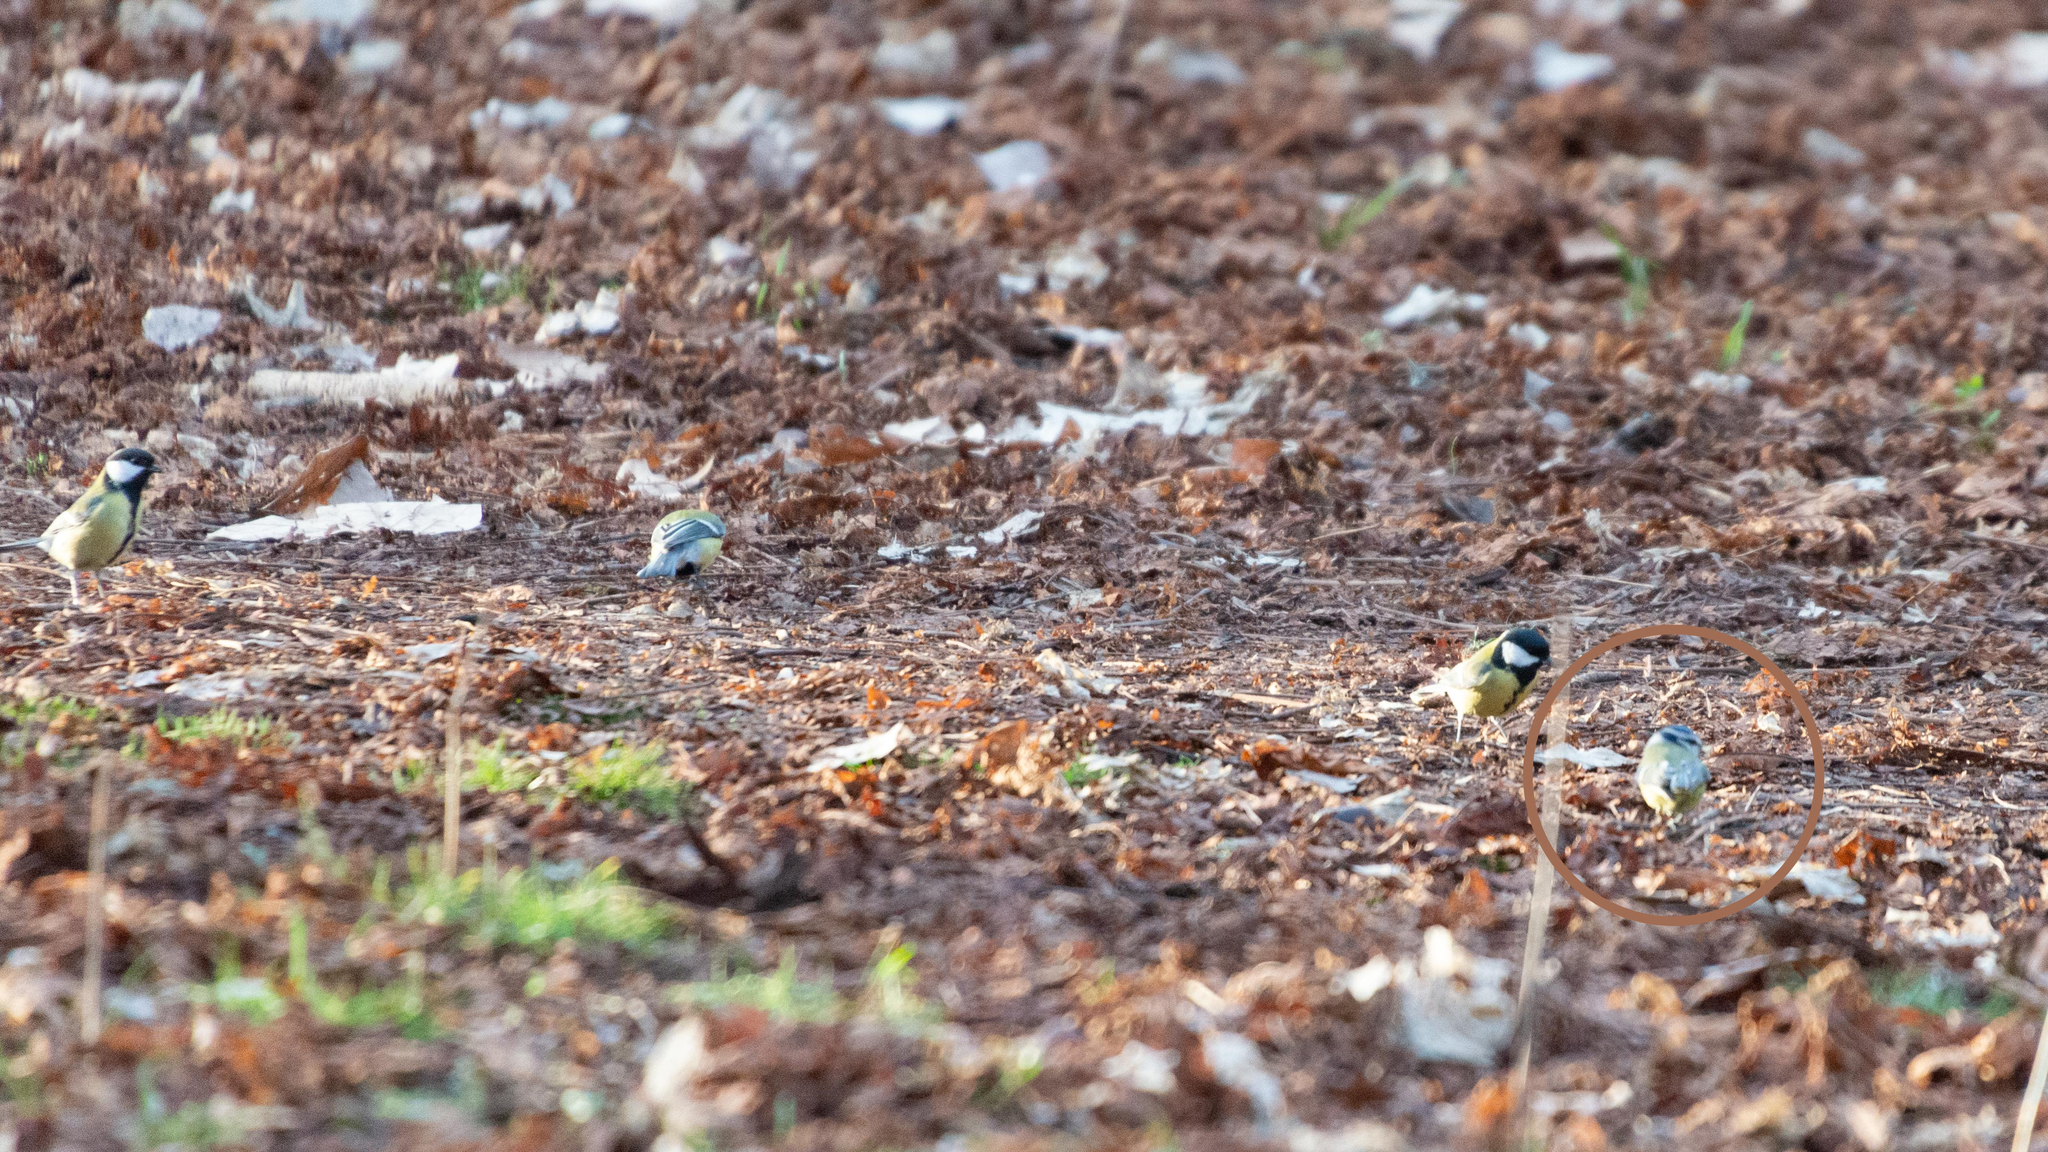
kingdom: Animalia
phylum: Chordata
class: Aves
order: Passeriformes
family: Paridae
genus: Cyanistes
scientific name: Cyanistes caeruleus
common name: Eurasian blue tit
